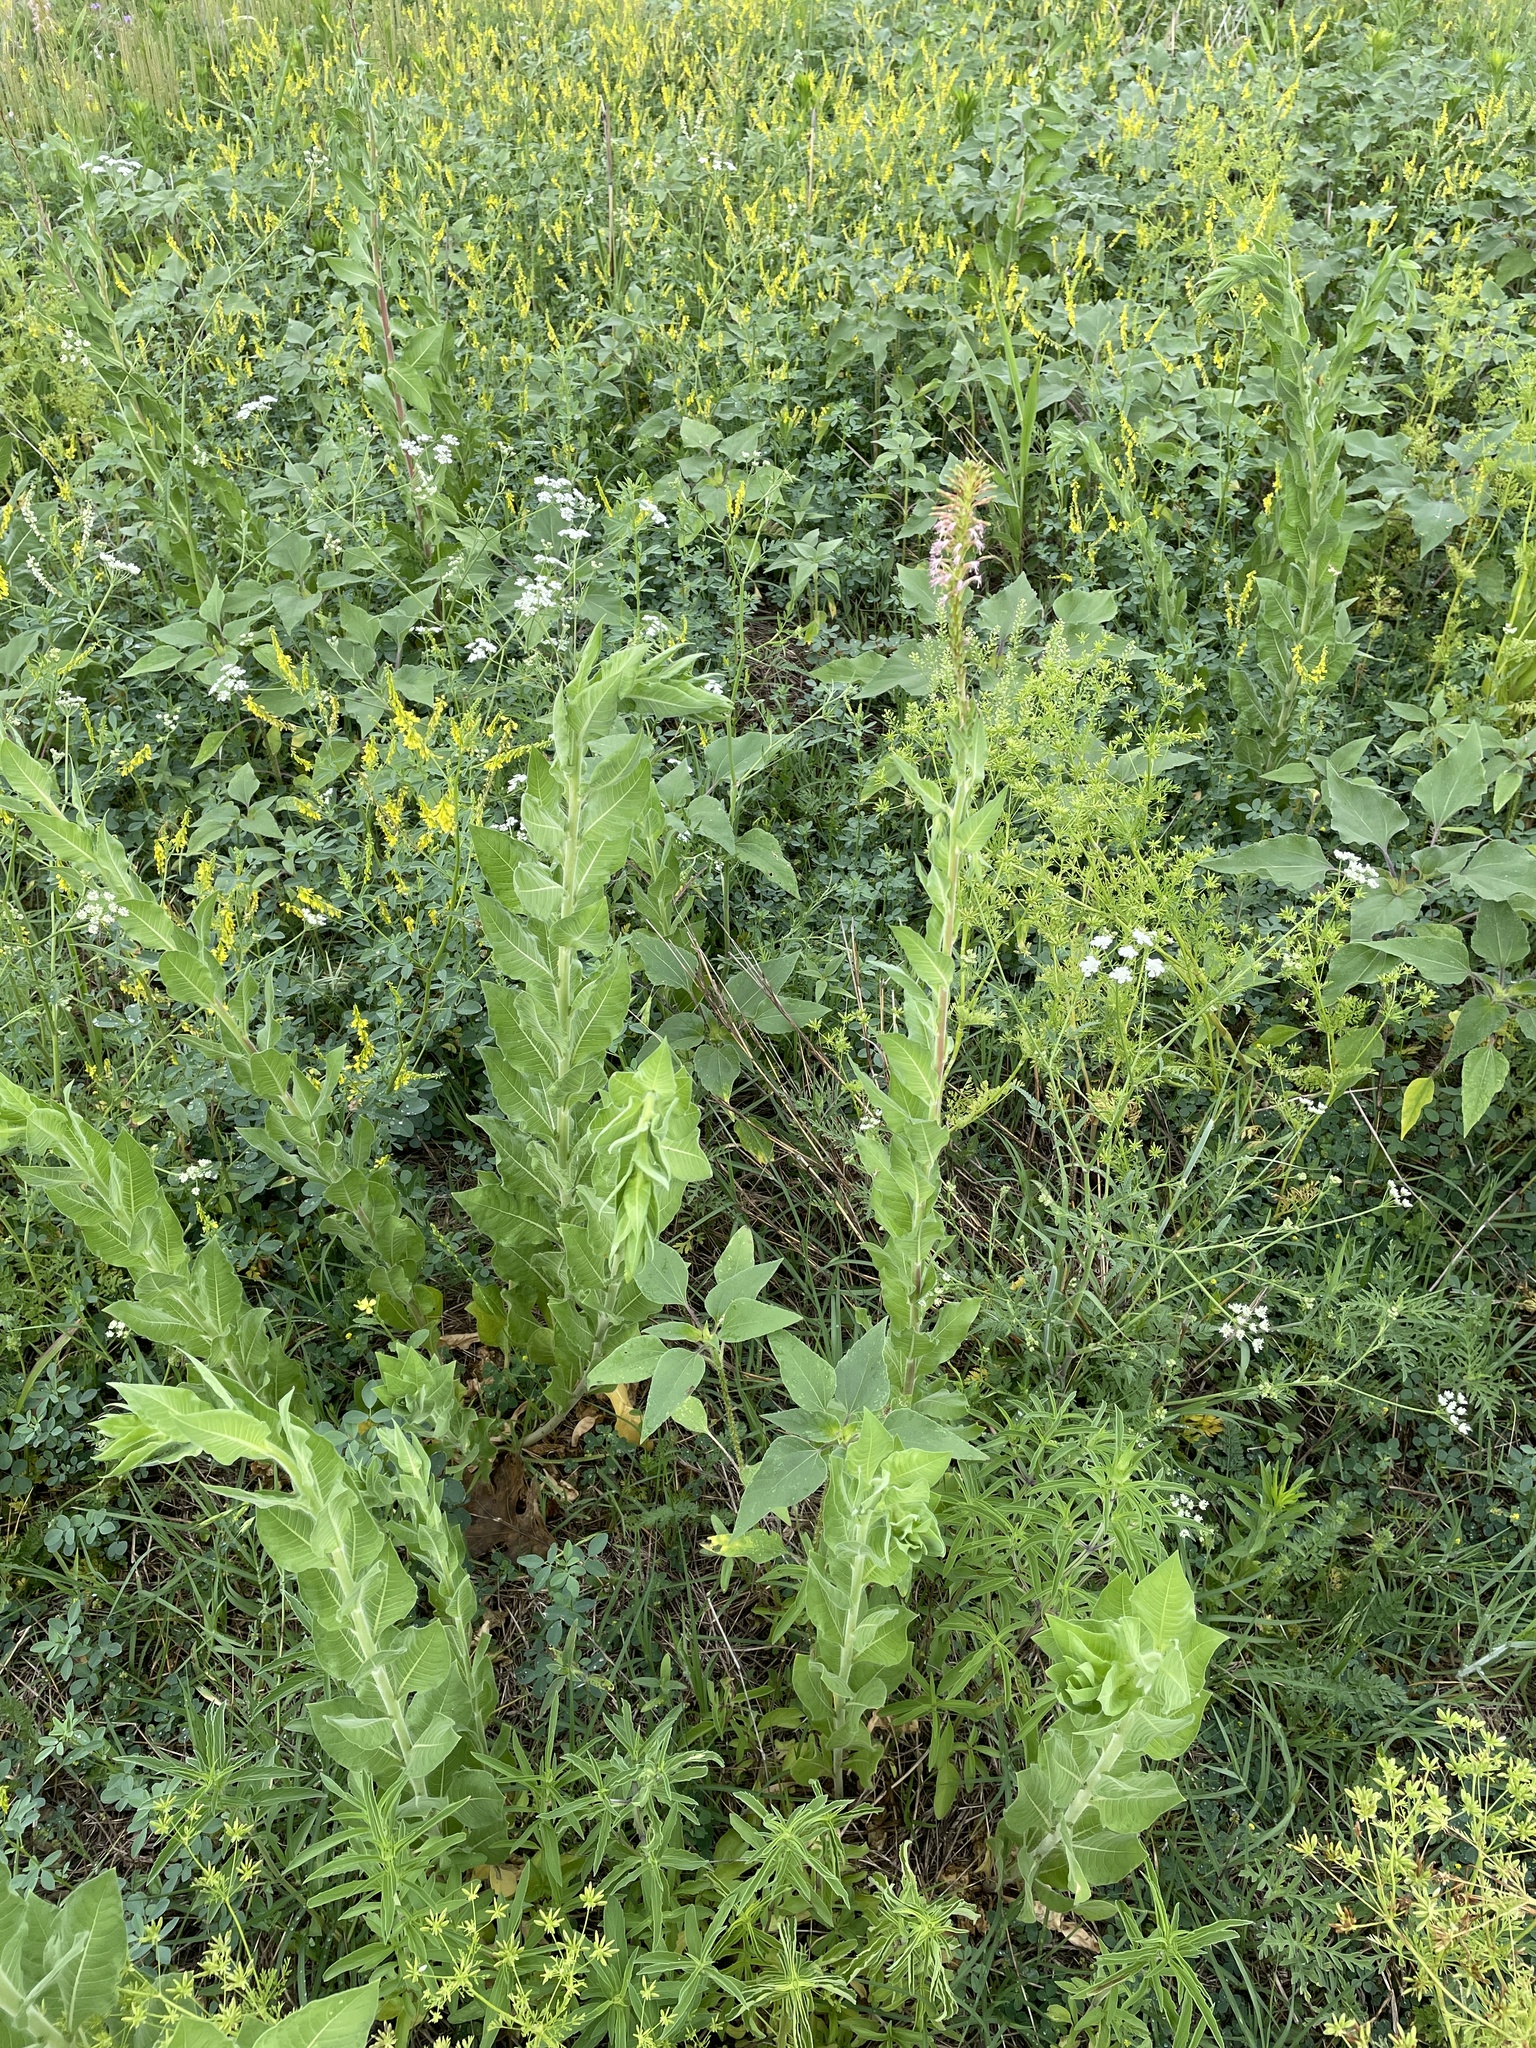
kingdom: Plantae
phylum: Tracheophyta
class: Magnoliopsida
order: Myrtales
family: Onagraceae
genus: Oenothera
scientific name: Oenothera curtiflora
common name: Velvetweed
